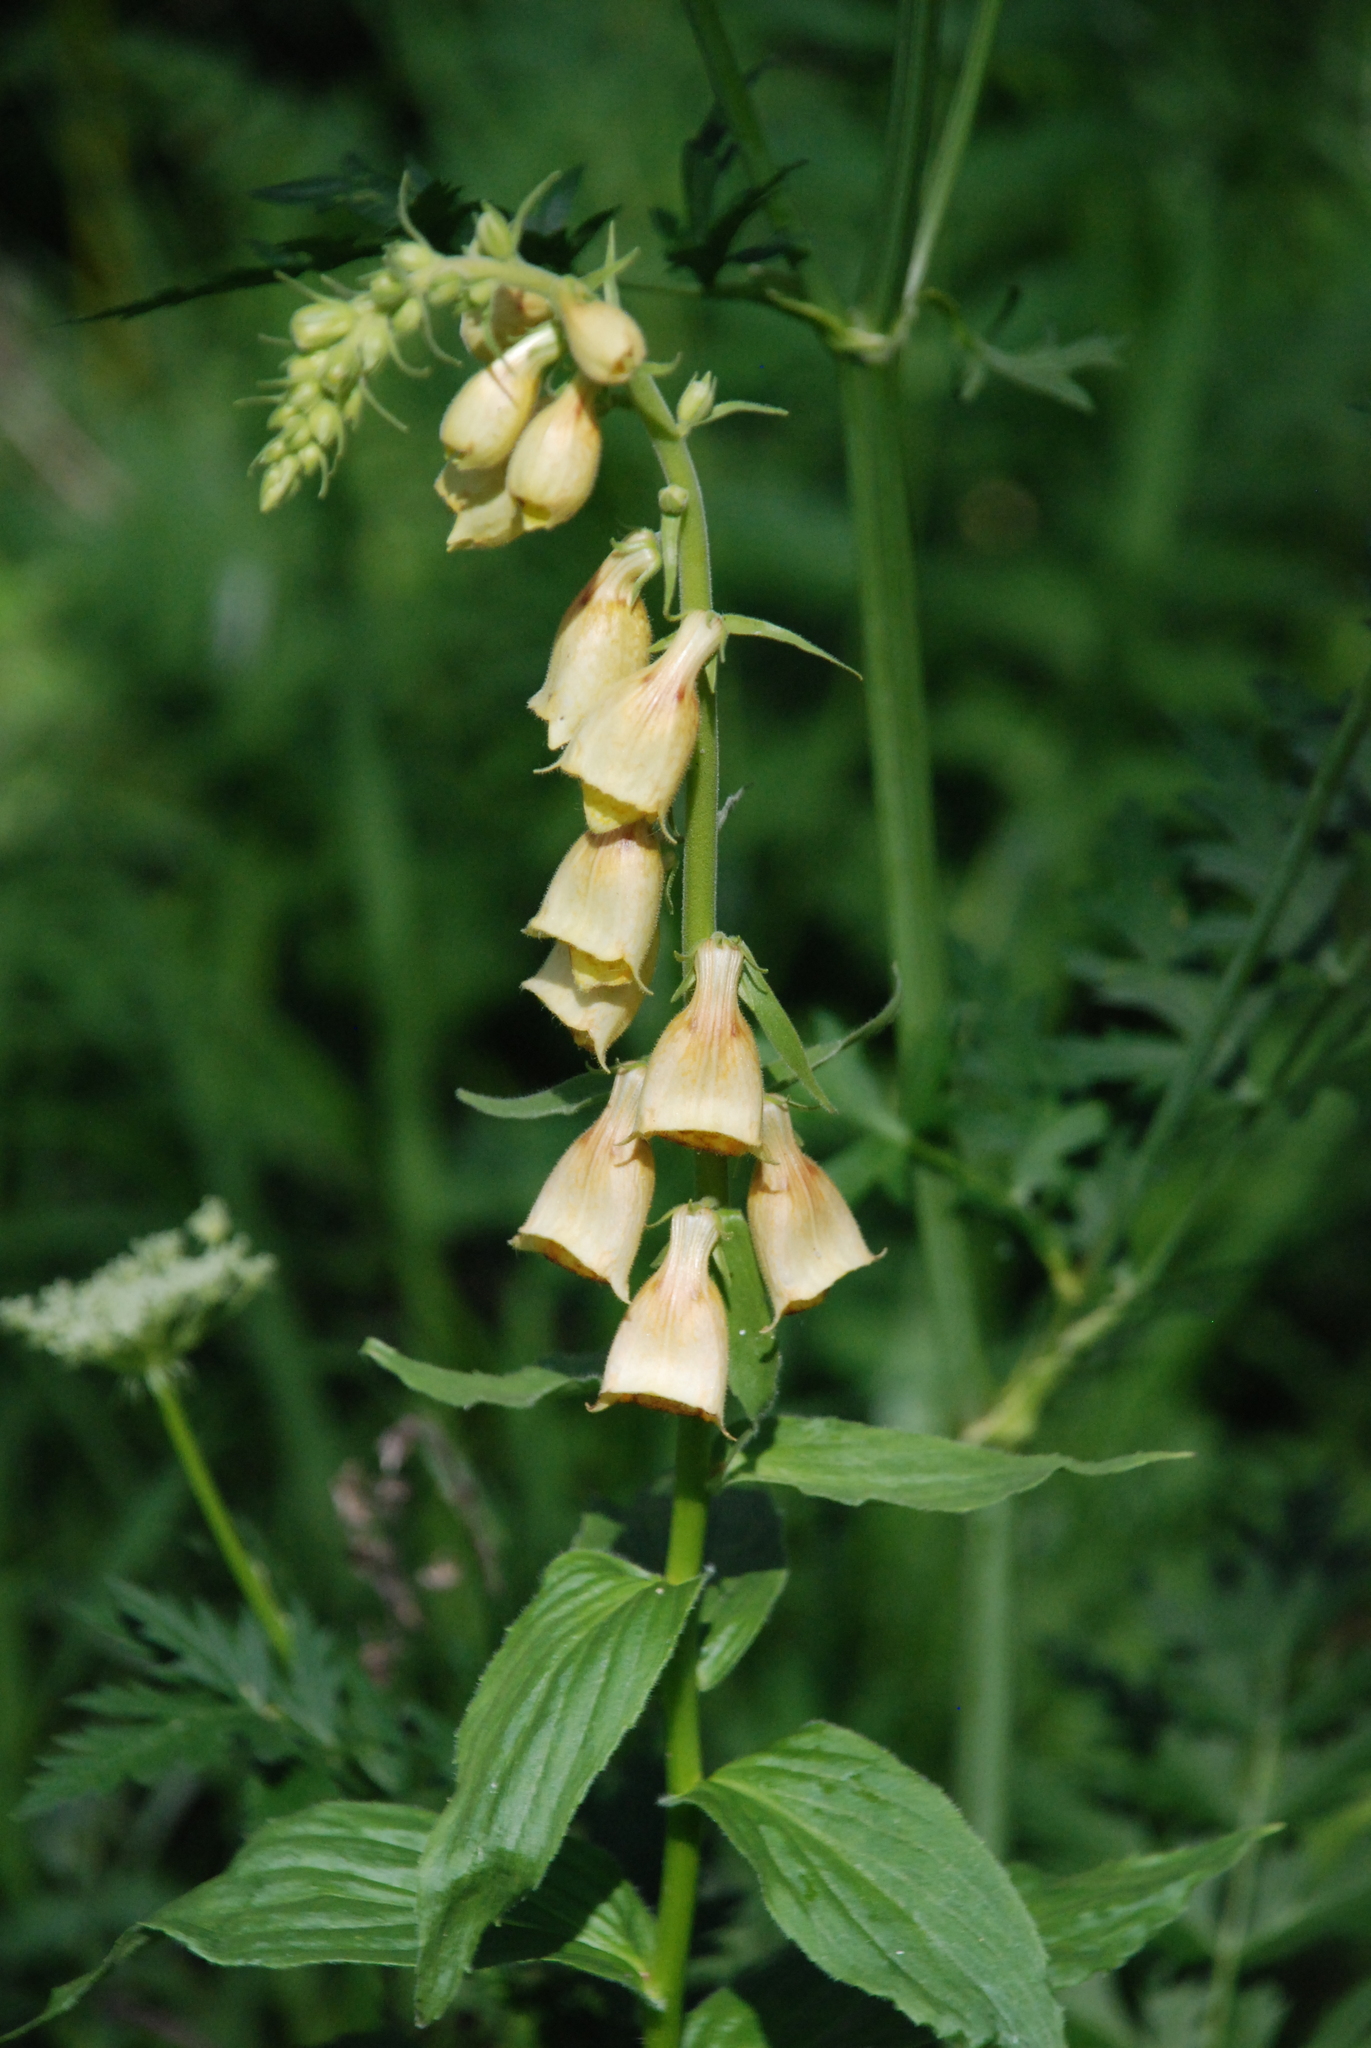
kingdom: Plantae
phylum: Tracheophyta
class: Magnoliopsida
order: Lamiales
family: Plantaginaceae
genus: Digitalis
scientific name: Digitalis grandiflora
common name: Yellow foxglove
